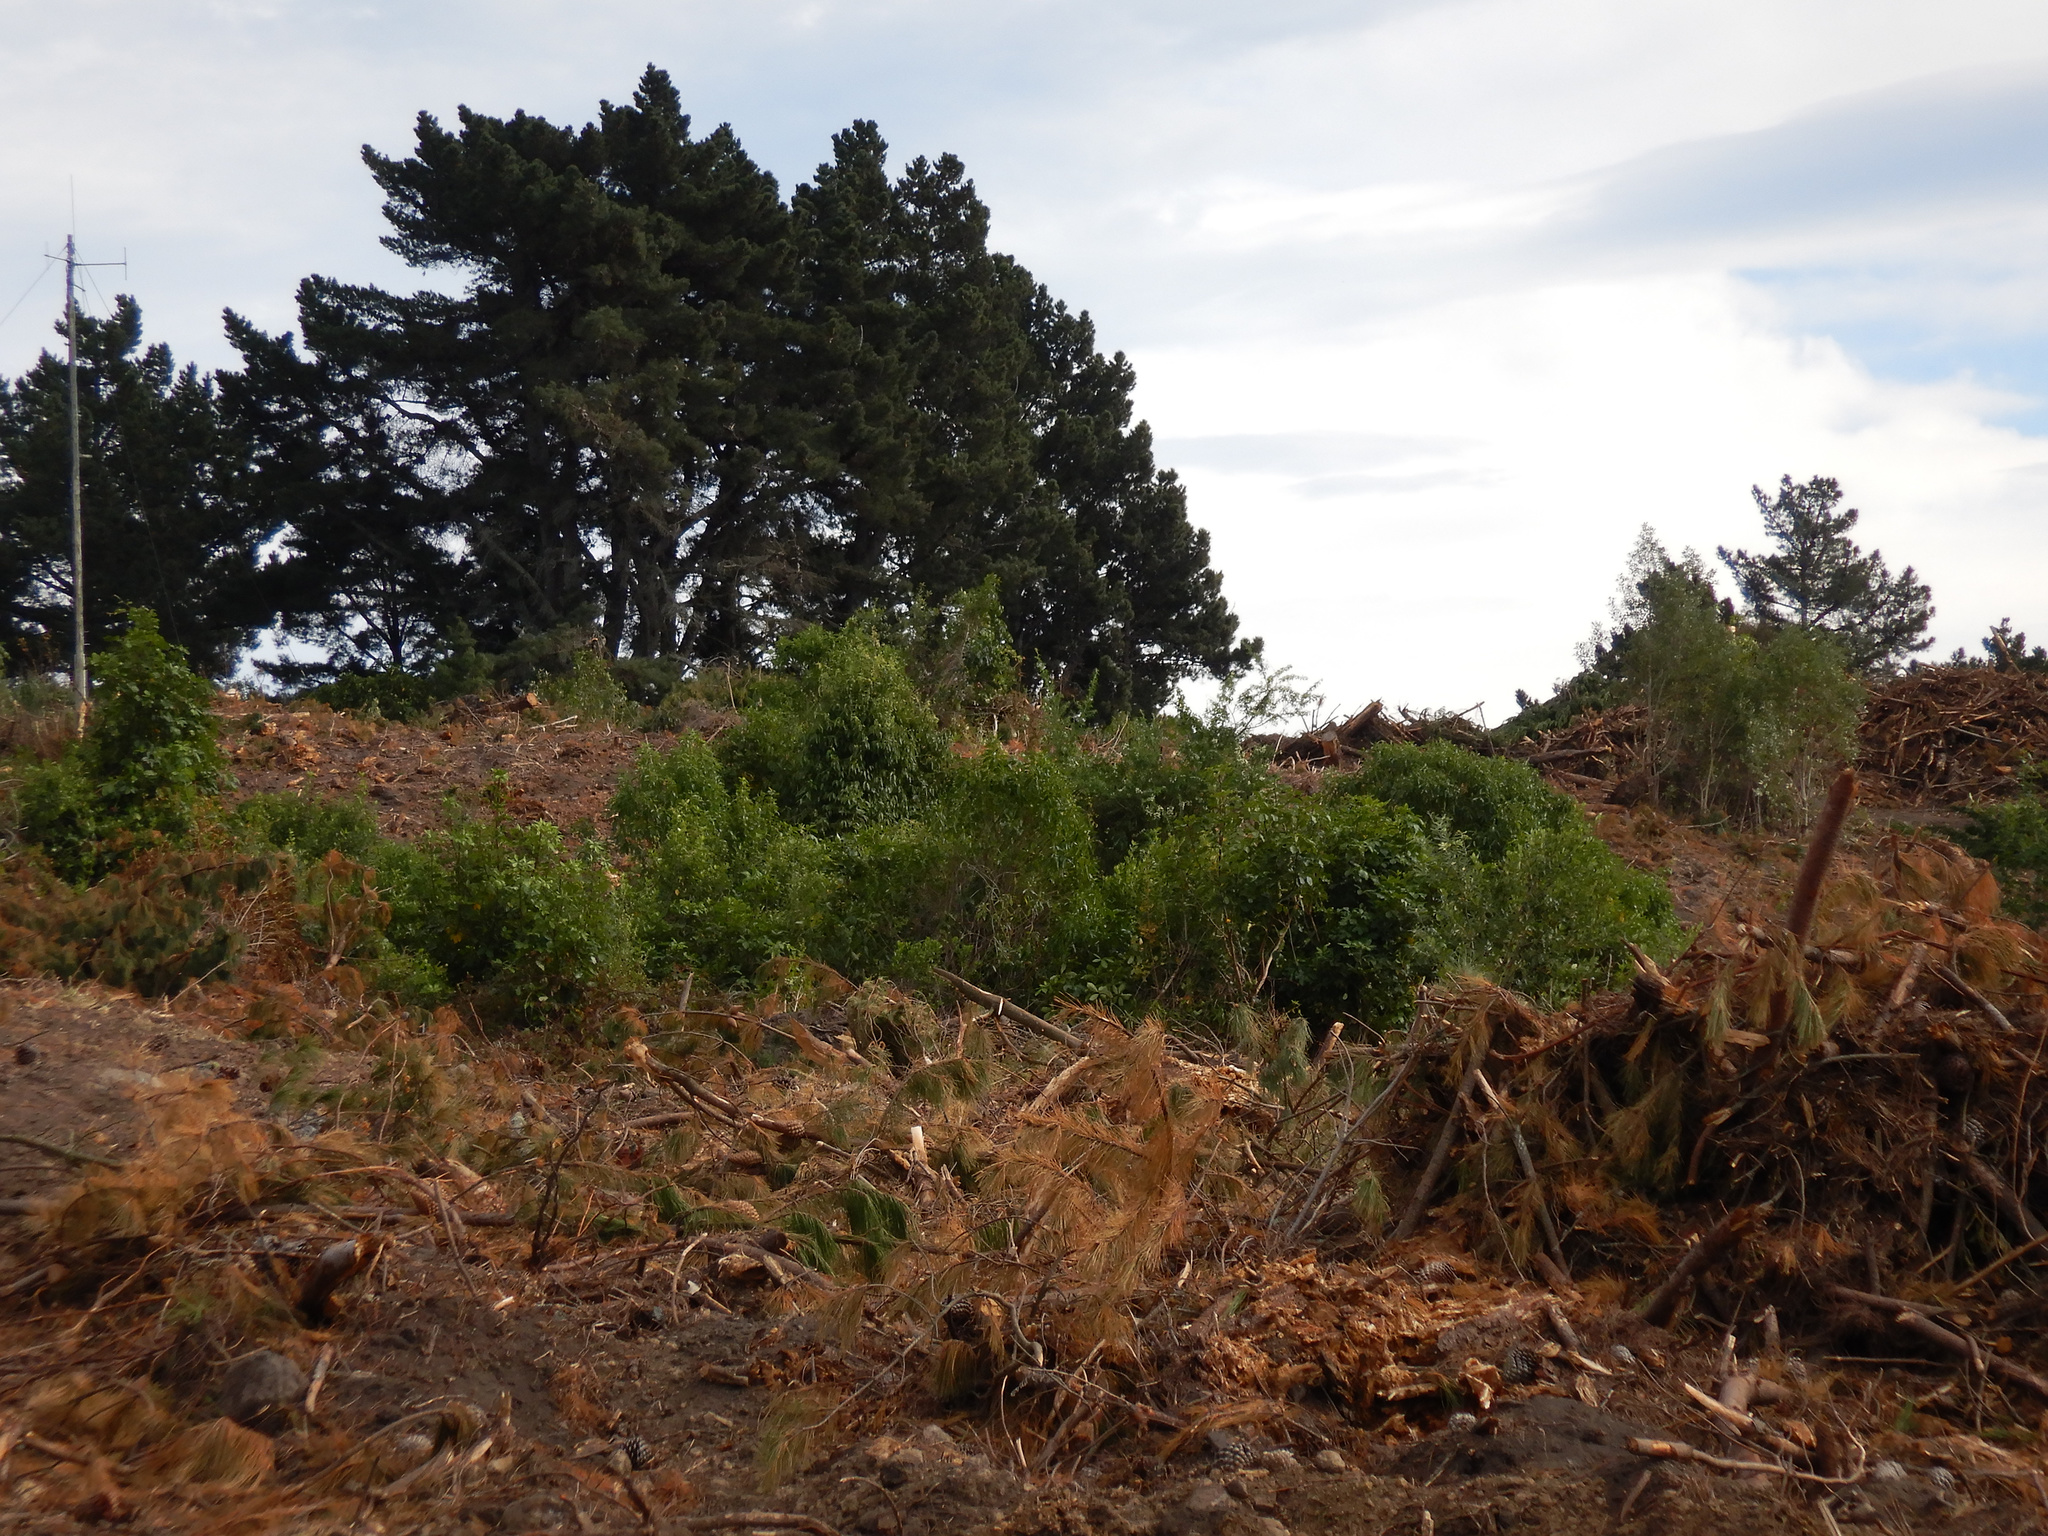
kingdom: Plantae
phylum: Tracheophyta
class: Magnoliopsida
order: Apiales
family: Araliaceae
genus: Neopanax
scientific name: Neopanax arboreus
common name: Five-fingers
